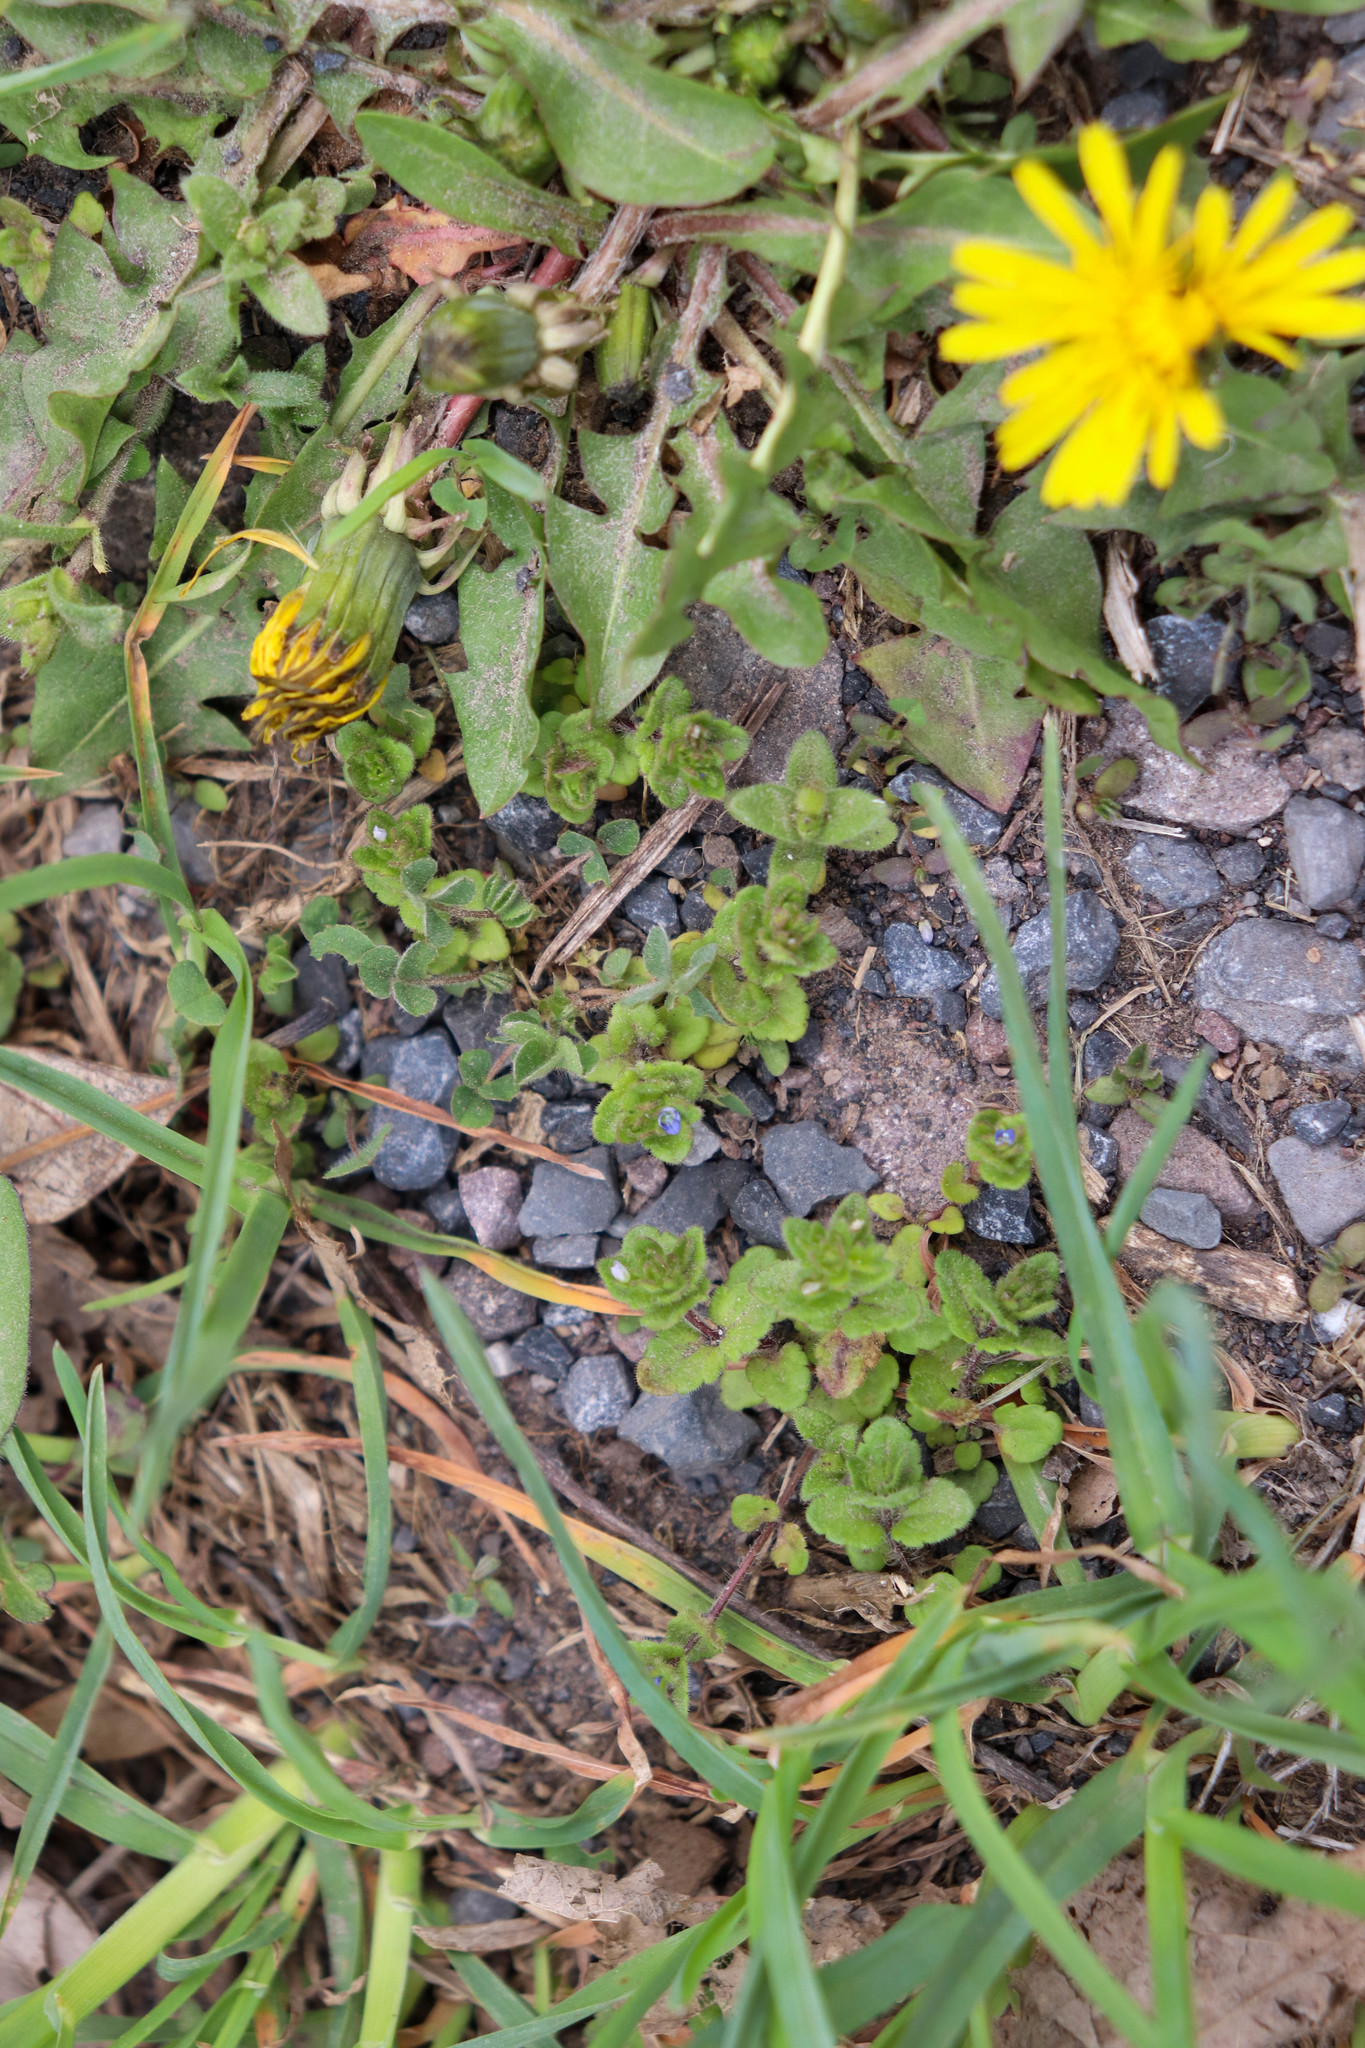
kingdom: Plantae
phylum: Tracheophyta
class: Magnoliopsida
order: Lamiales
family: Plantaginaceae
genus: Veronica
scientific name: Veronica arvensis
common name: Corn speedwell
